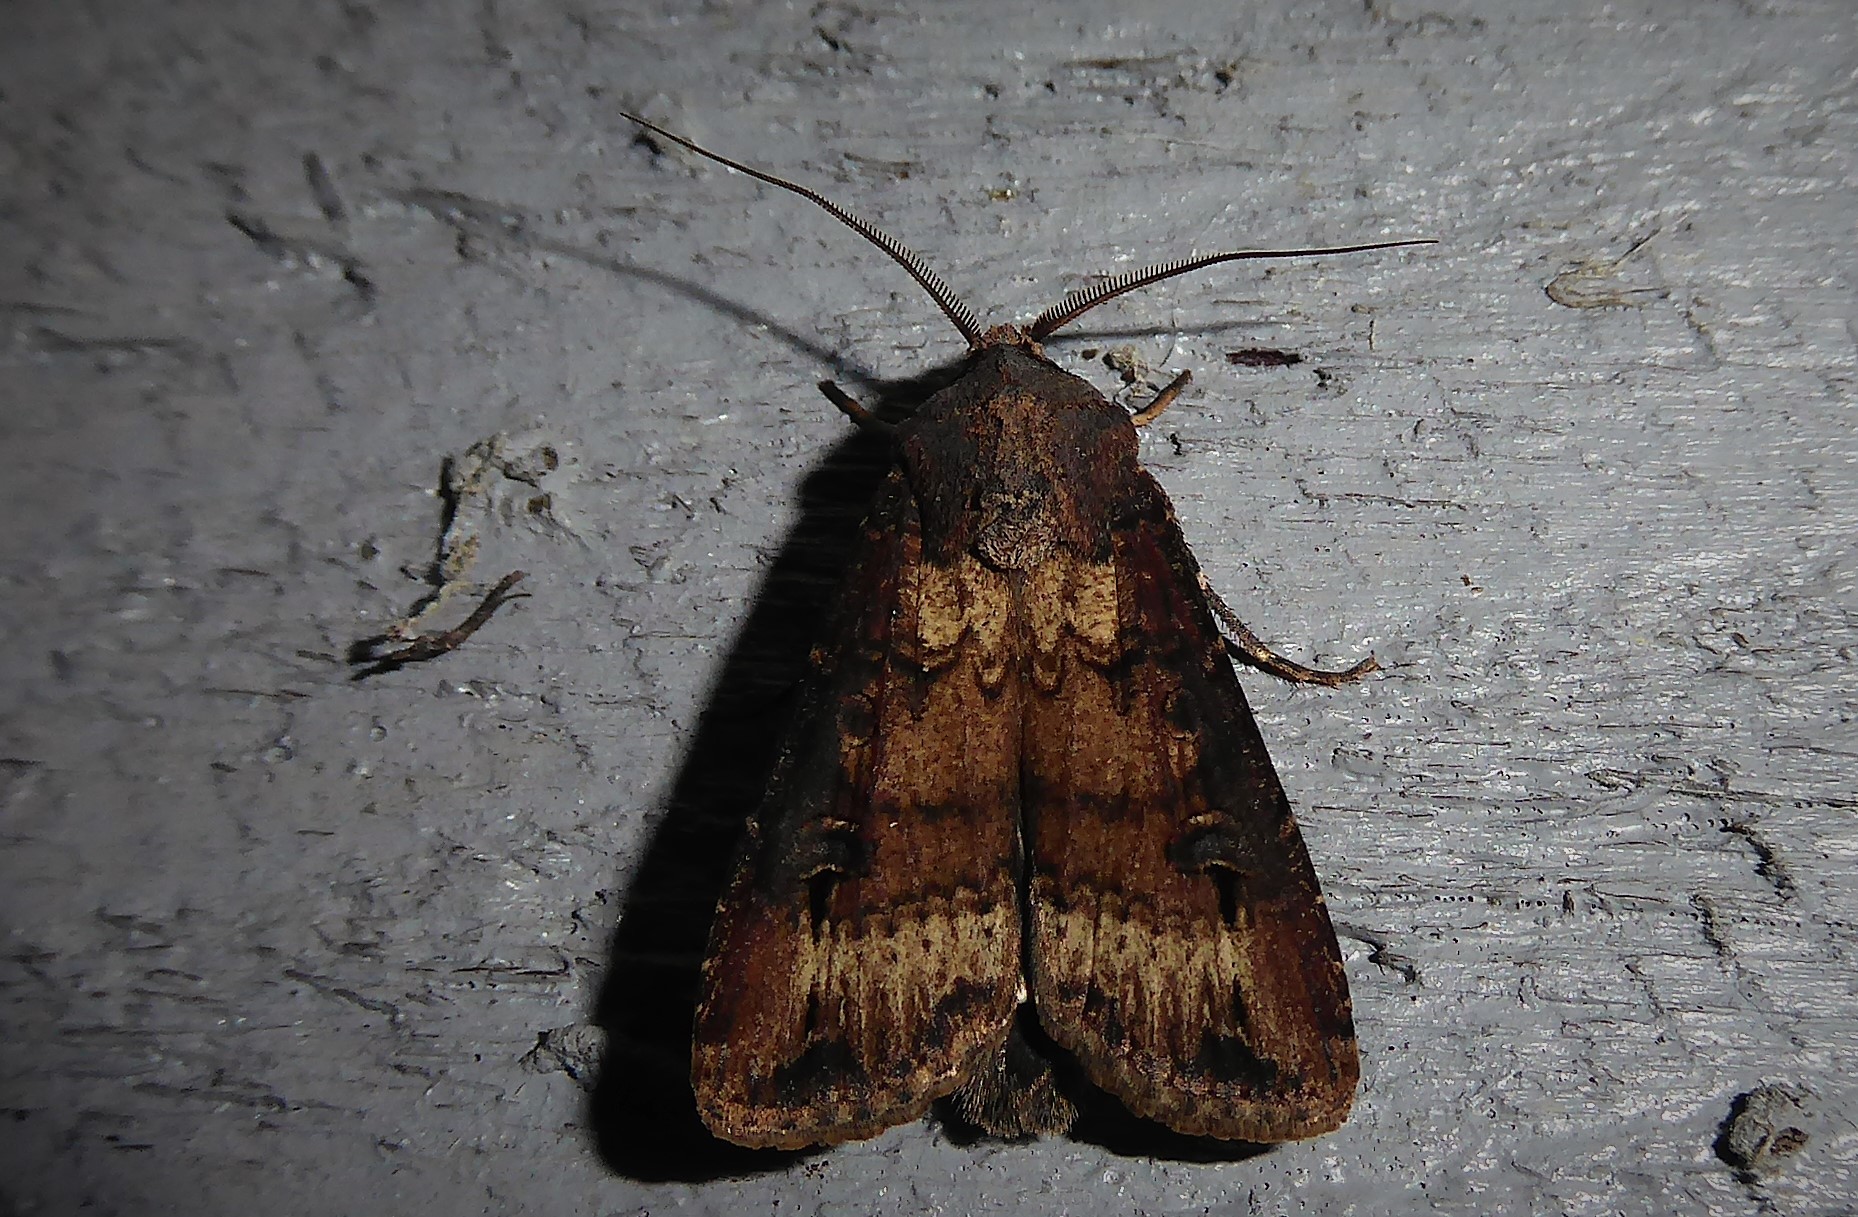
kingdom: Animalia
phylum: Arthropoda
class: Insecta
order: Lepidoptera
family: Noctuidae
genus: Agrotis
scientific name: Agrotis ipsilon
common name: Dark sword-grass
